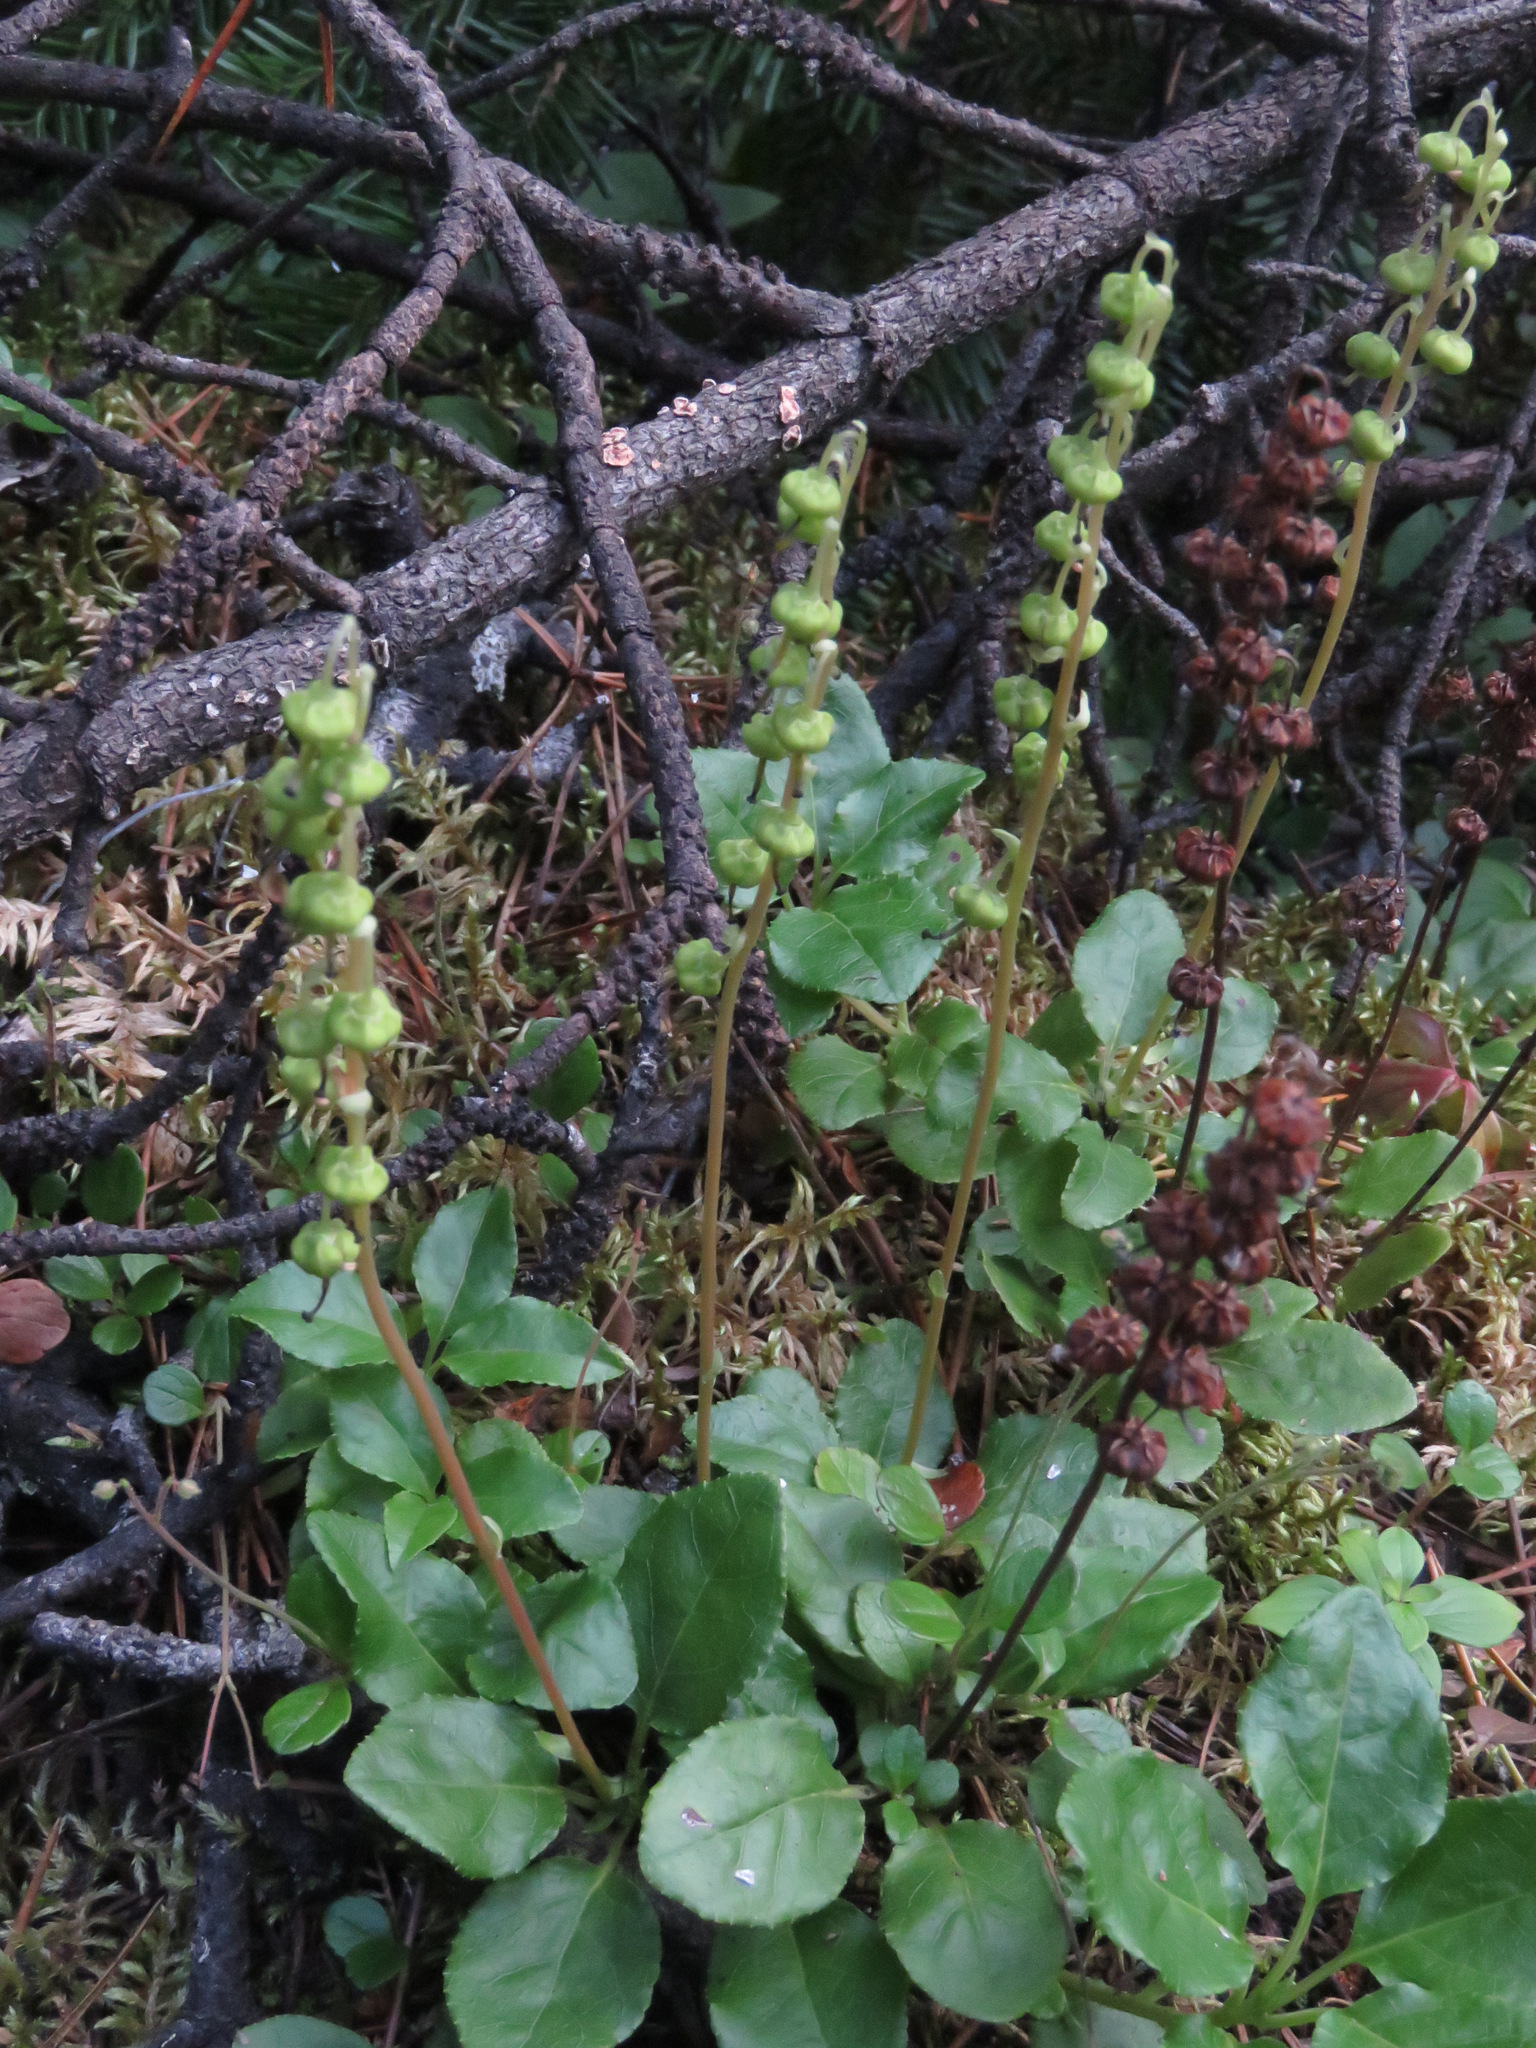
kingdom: Plantae
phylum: Tracheophyta
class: Magnoliopsida
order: Ericales
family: Ericaceae
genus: Orthilia
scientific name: Orthilia secunda
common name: One-sided orthilia
